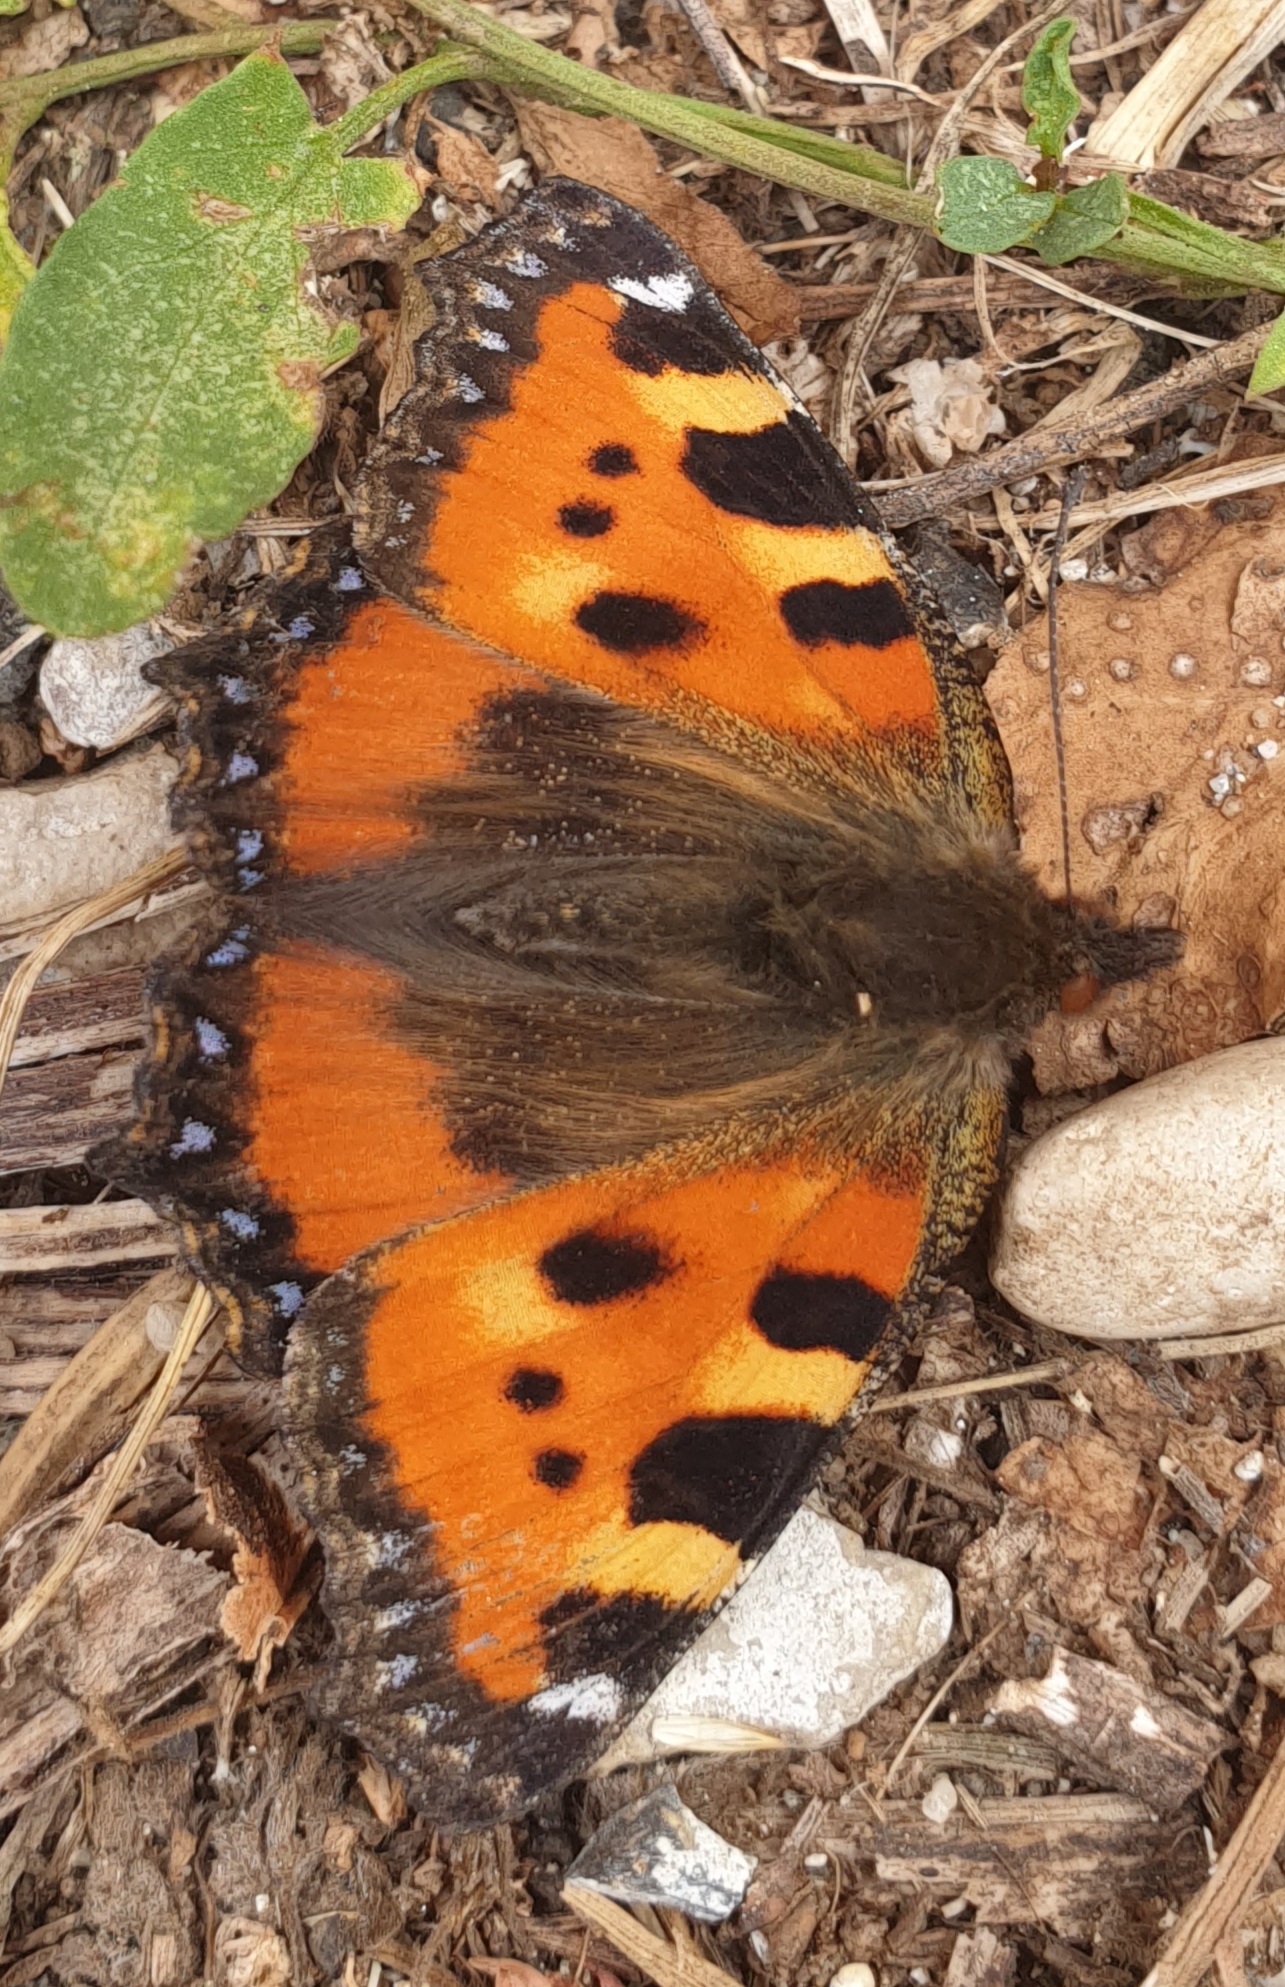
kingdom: Animalia
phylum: Arthropoda
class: Insecta
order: Lepidoptera
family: Nymphalidae
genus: Aglais
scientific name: Aglais urticae
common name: Small tortoiseshell
